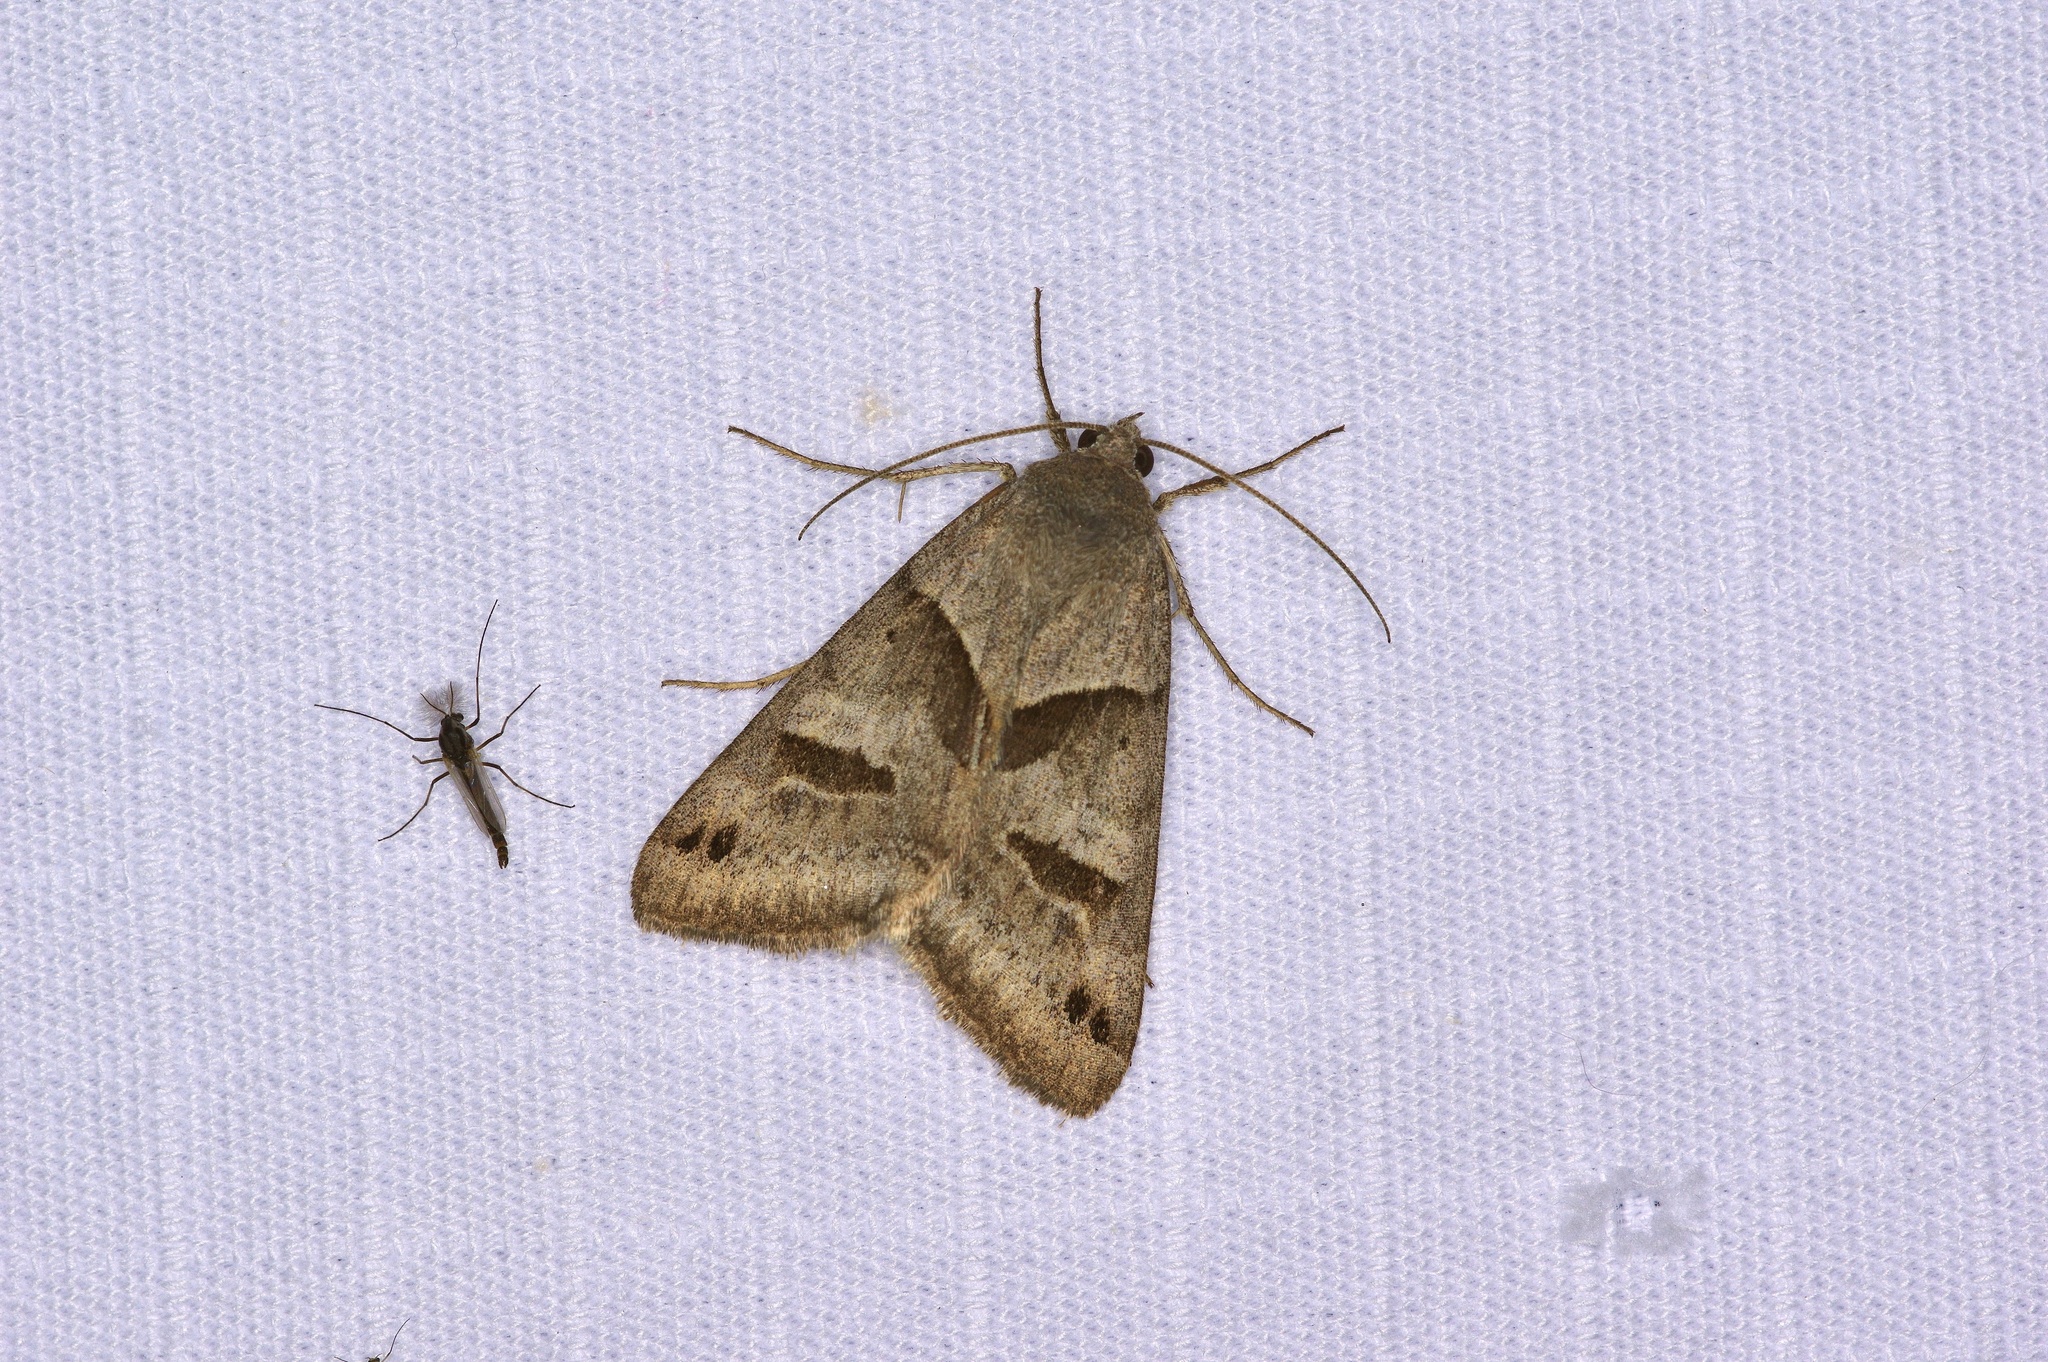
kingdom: Animalia
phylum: Arthropoda
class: Insecta
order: Lepidoptera
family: Erebidae
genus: Caenurgina
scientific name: Caenurgina erechtea
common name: Forage looper moth
